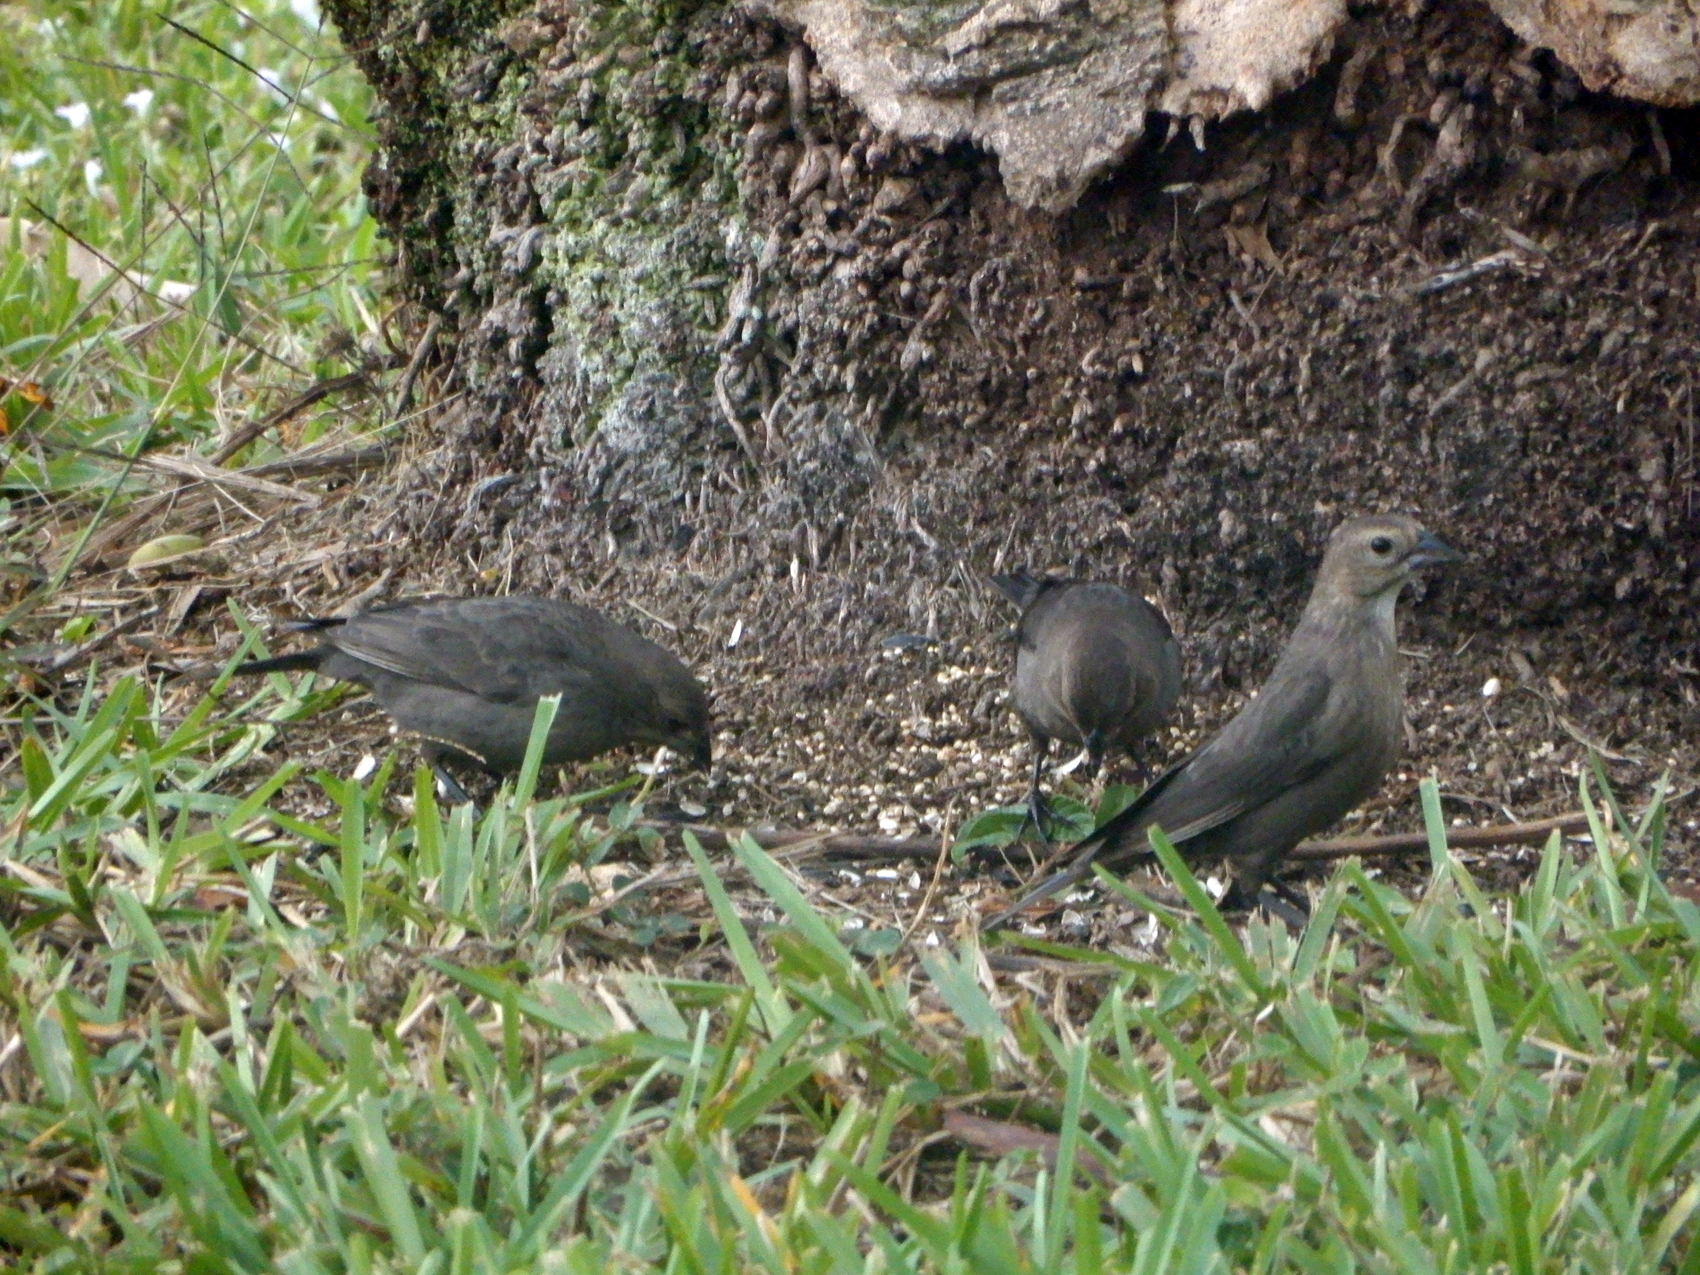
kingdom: Animalia
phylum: Chordata
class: Aves
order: Passeriformes
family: Icteridae
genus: Molothrus
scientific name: Molothrus ater
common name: Brown-headed cowbird
